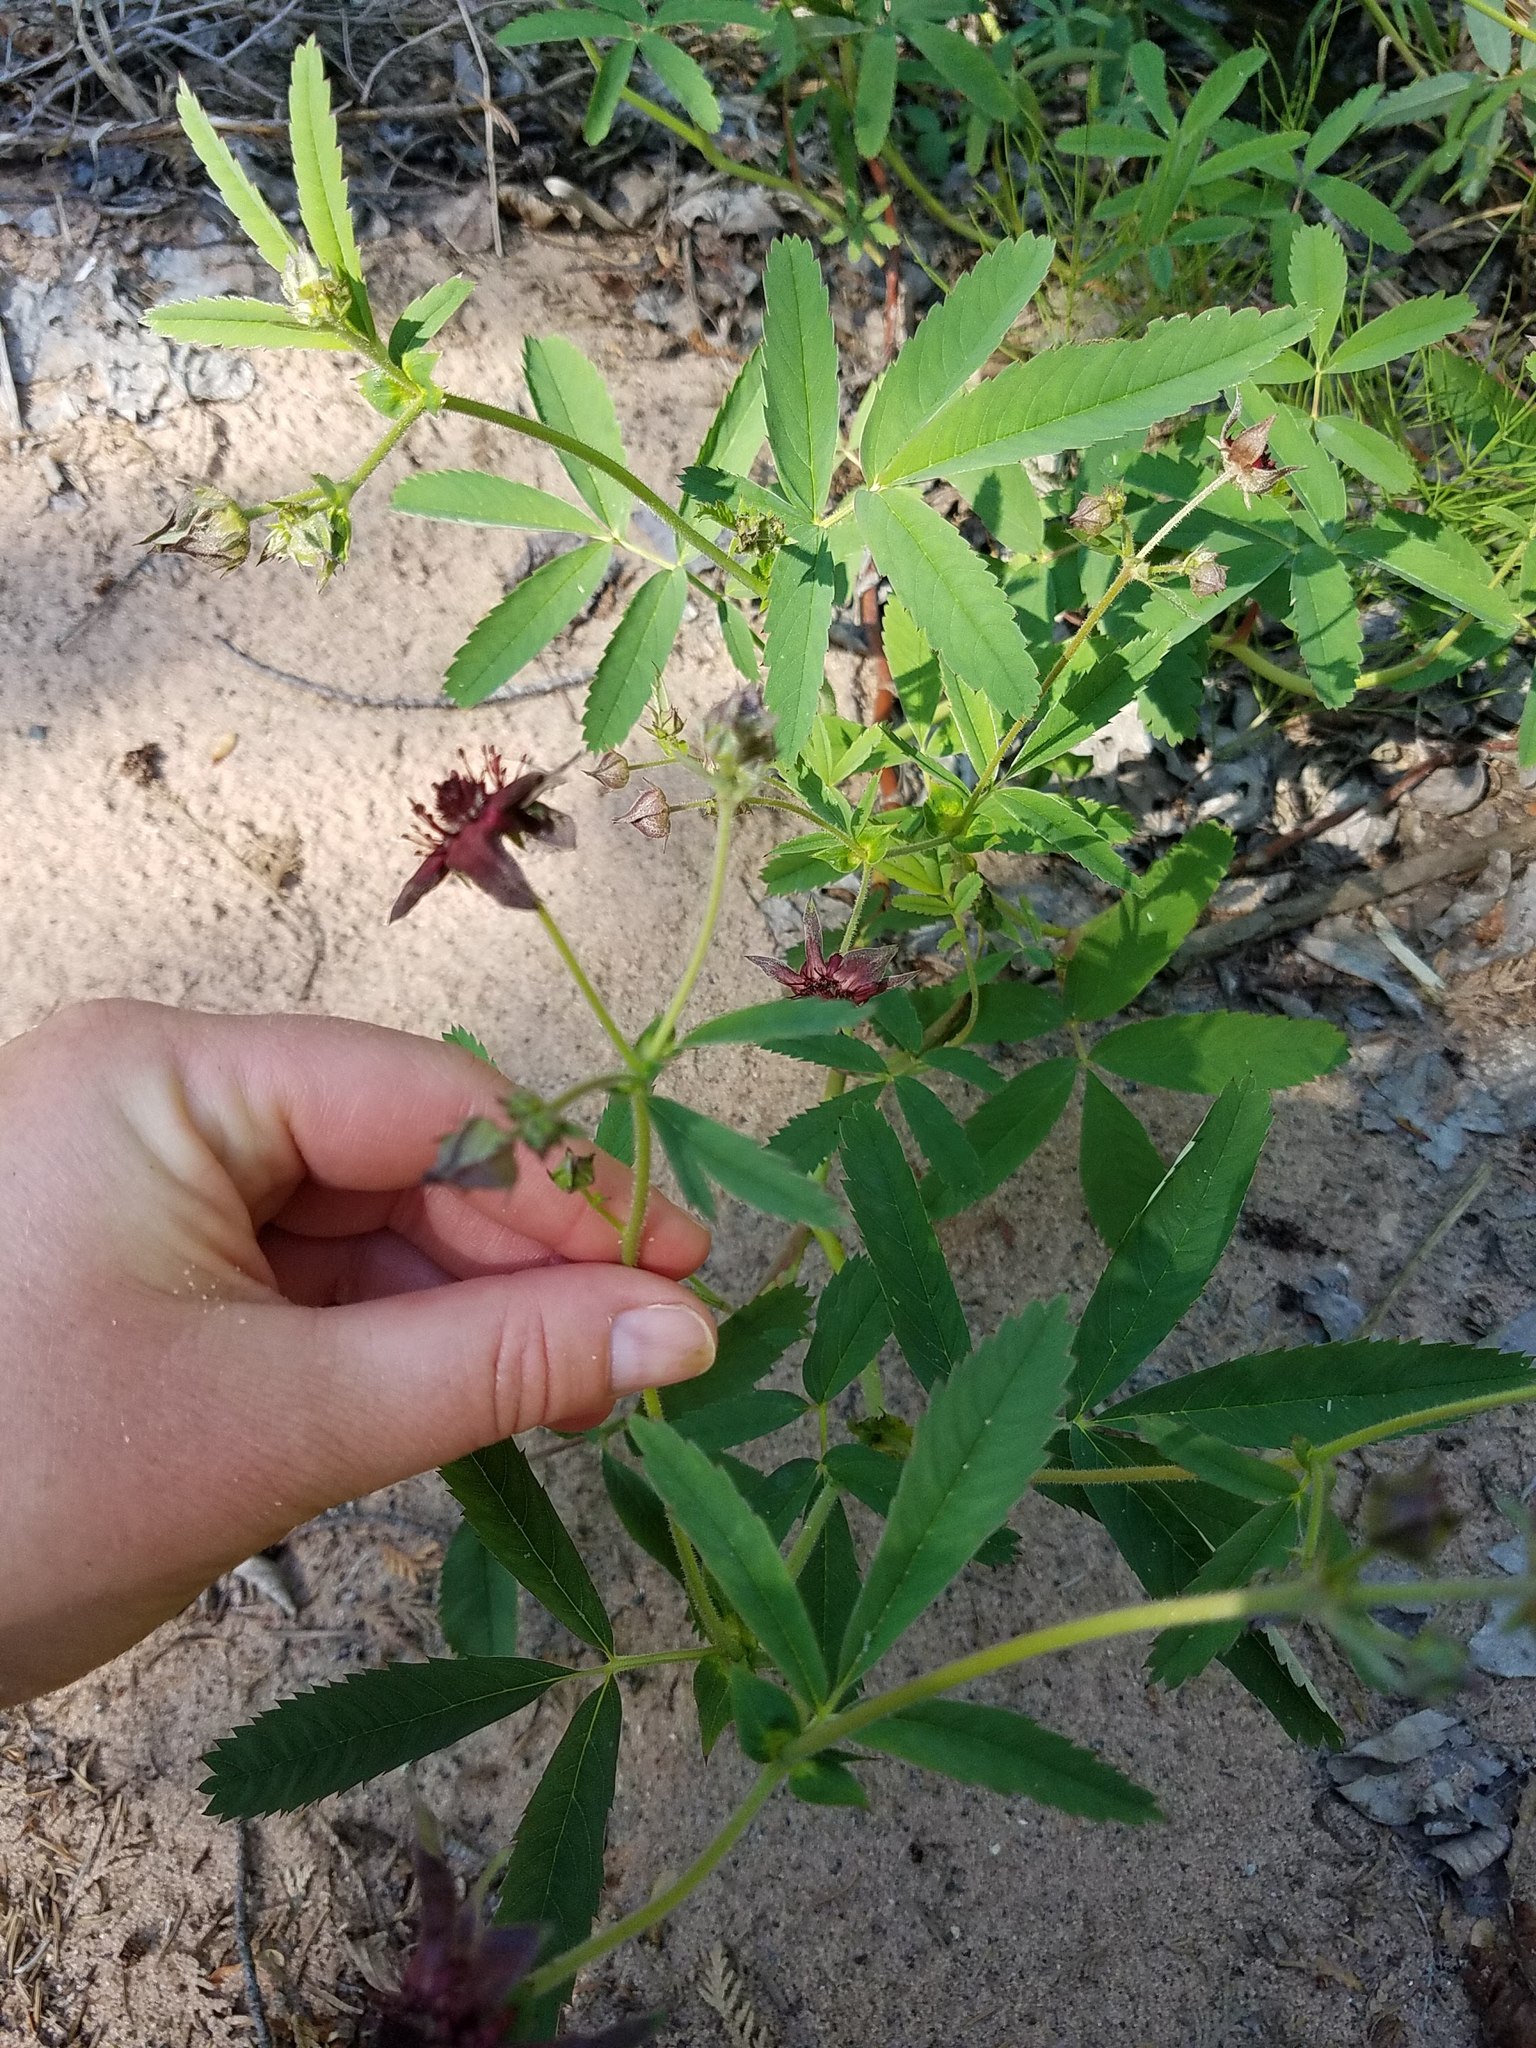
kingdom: Plantae
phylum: Tracheophyta
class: Magnoliopsida
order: Rosales
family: Rosaceae
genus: Comarum
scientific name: Comarum palustre
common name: Marsh cinquefoil
